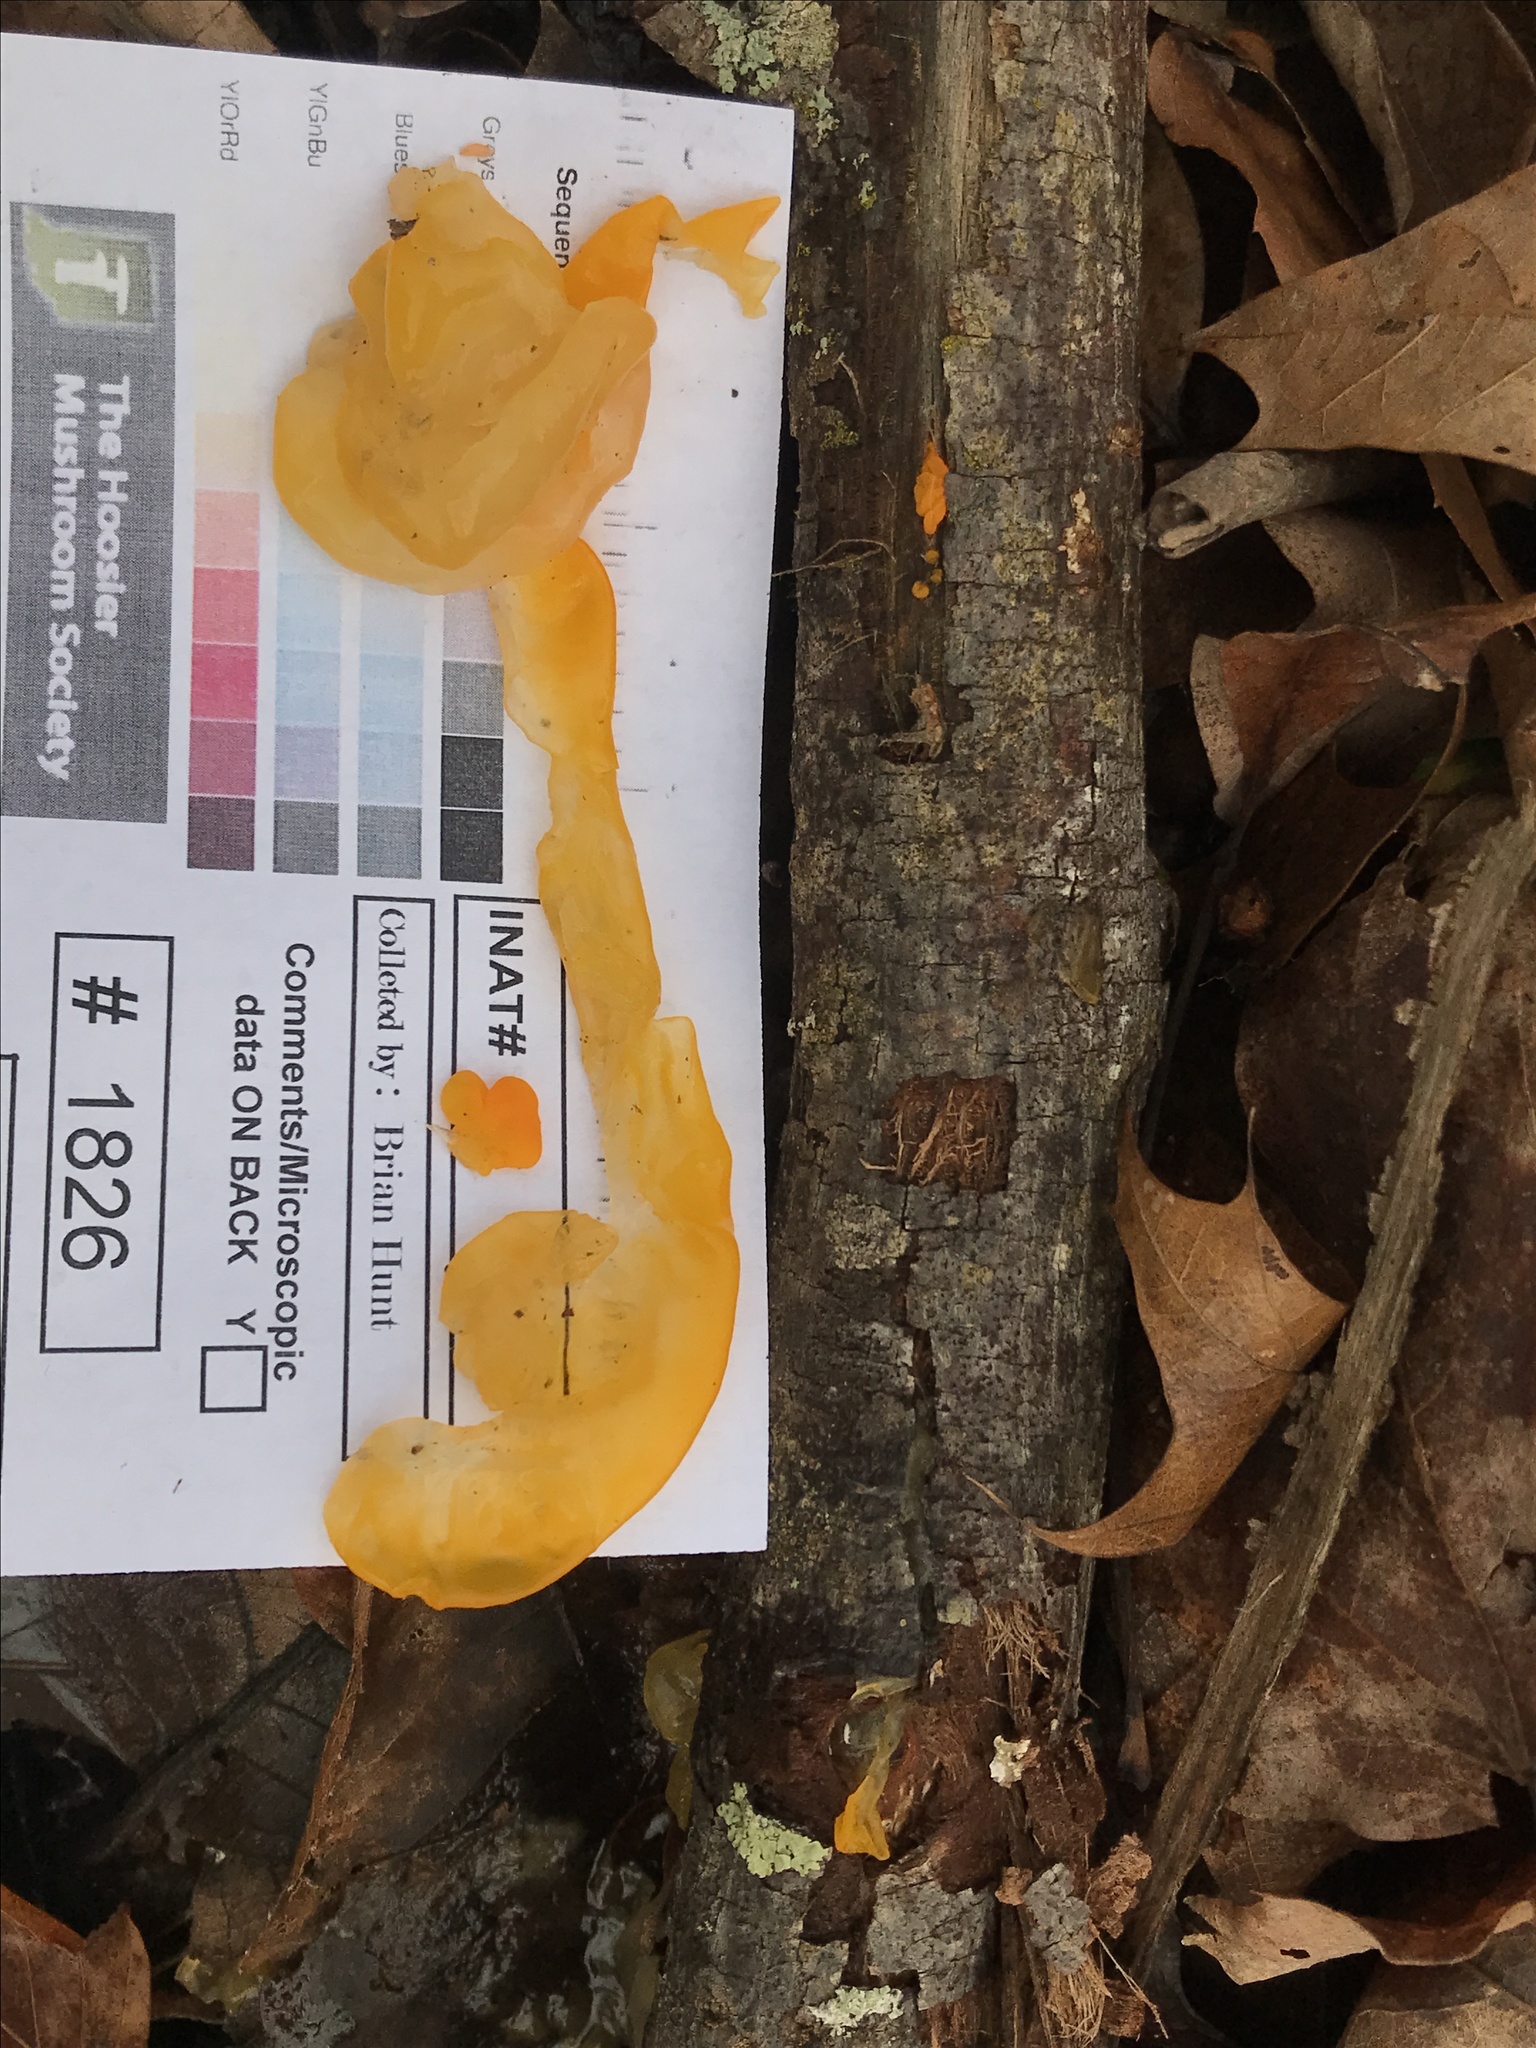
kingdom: Fungi
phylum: Basidiomycota
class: Tremellomycetes
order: Tremellales
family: Tremellaceae
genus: Tremella
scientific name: Tremella mesenterica
